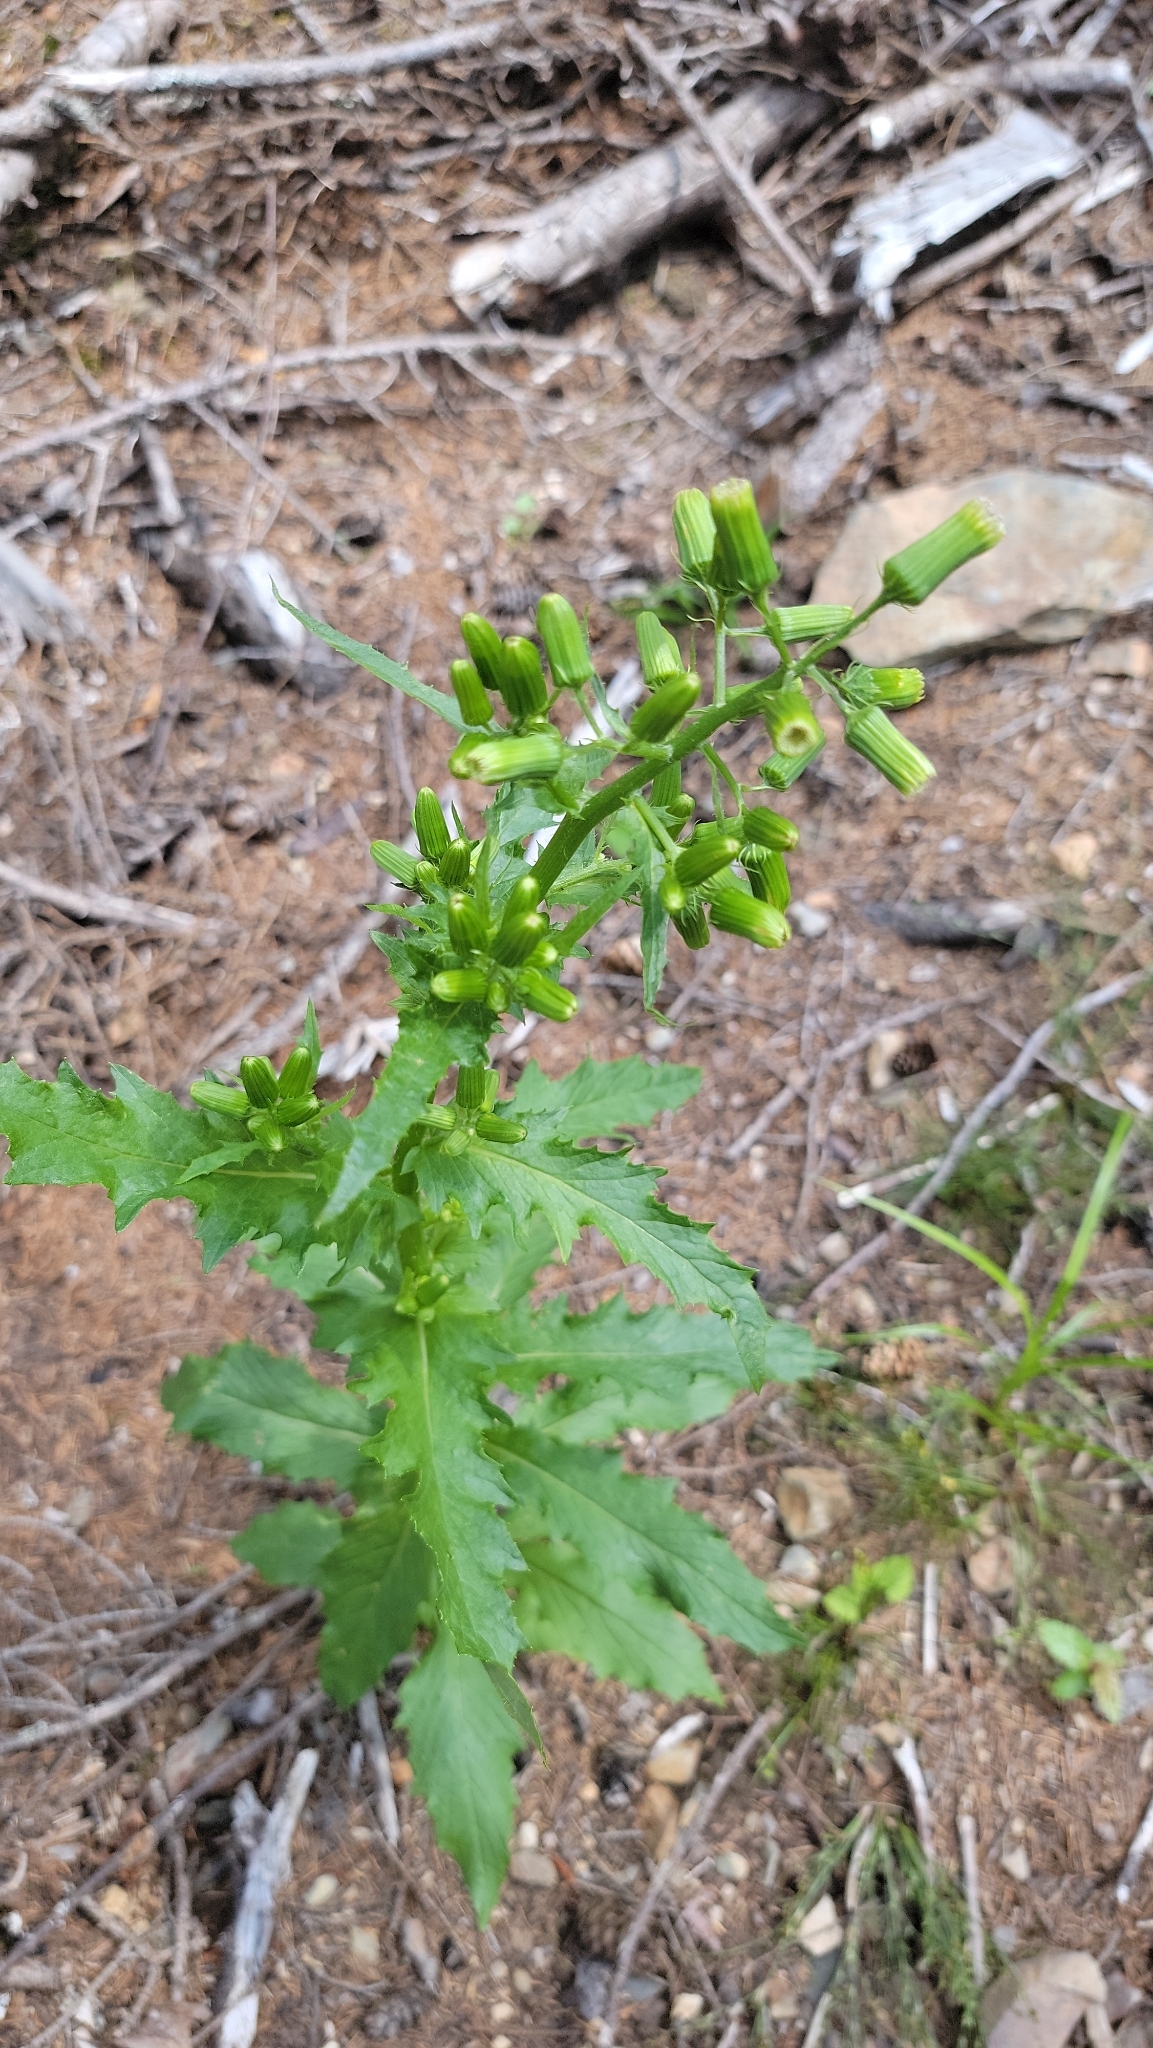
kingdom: Plantae
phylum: Tracheophyta
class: Magnoliopsida
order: Asterales
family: Asteraceae
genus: Erechtites
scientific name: Erechtites hieraciifolius
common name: American burnweed
